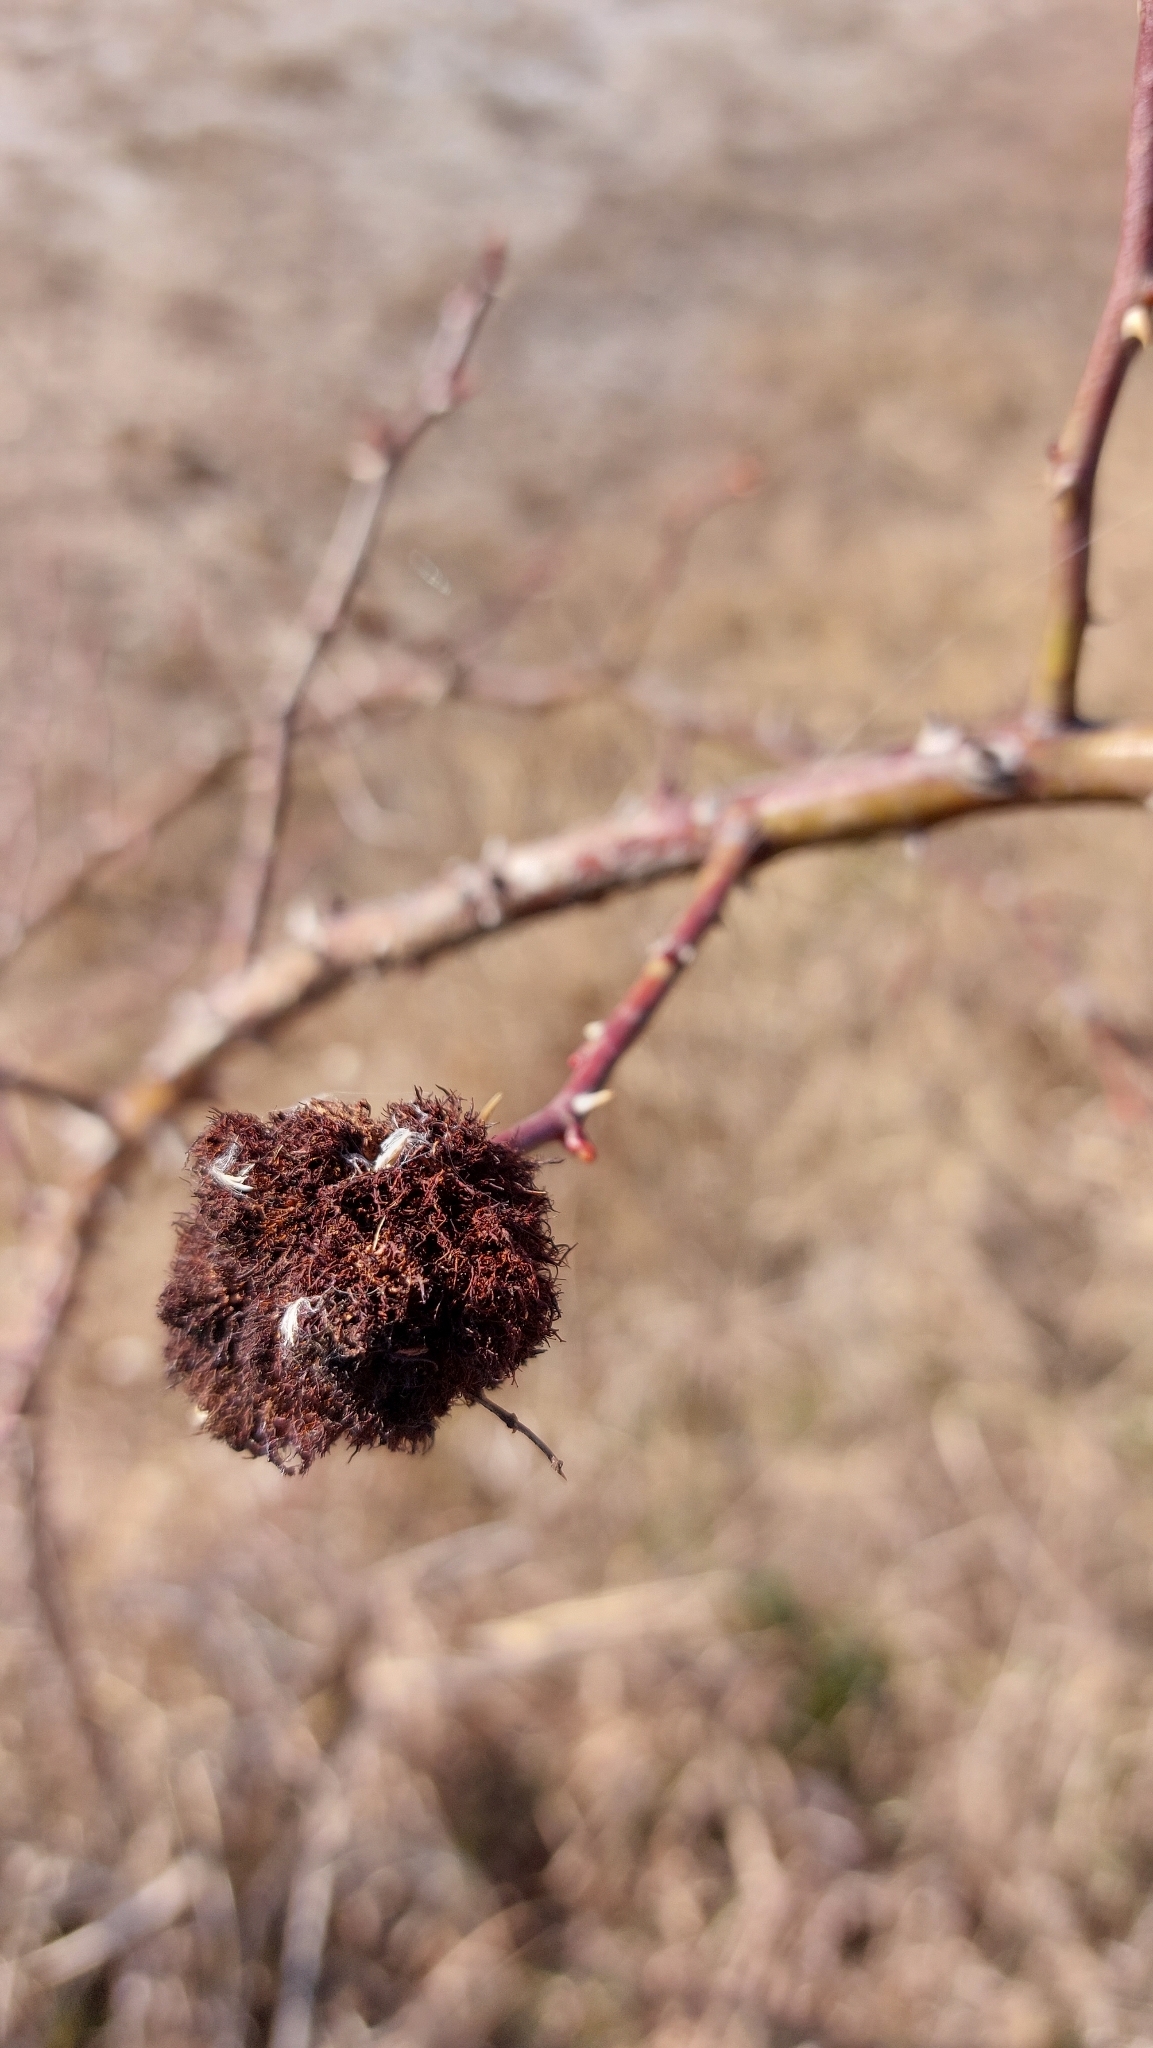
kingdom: Animalia
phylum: Arthropoda
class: Insecta
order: Hymenoptera
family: Cynipidae
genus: Diplolepis
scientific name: Diplolepis rosae
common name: Bedeguar gall
